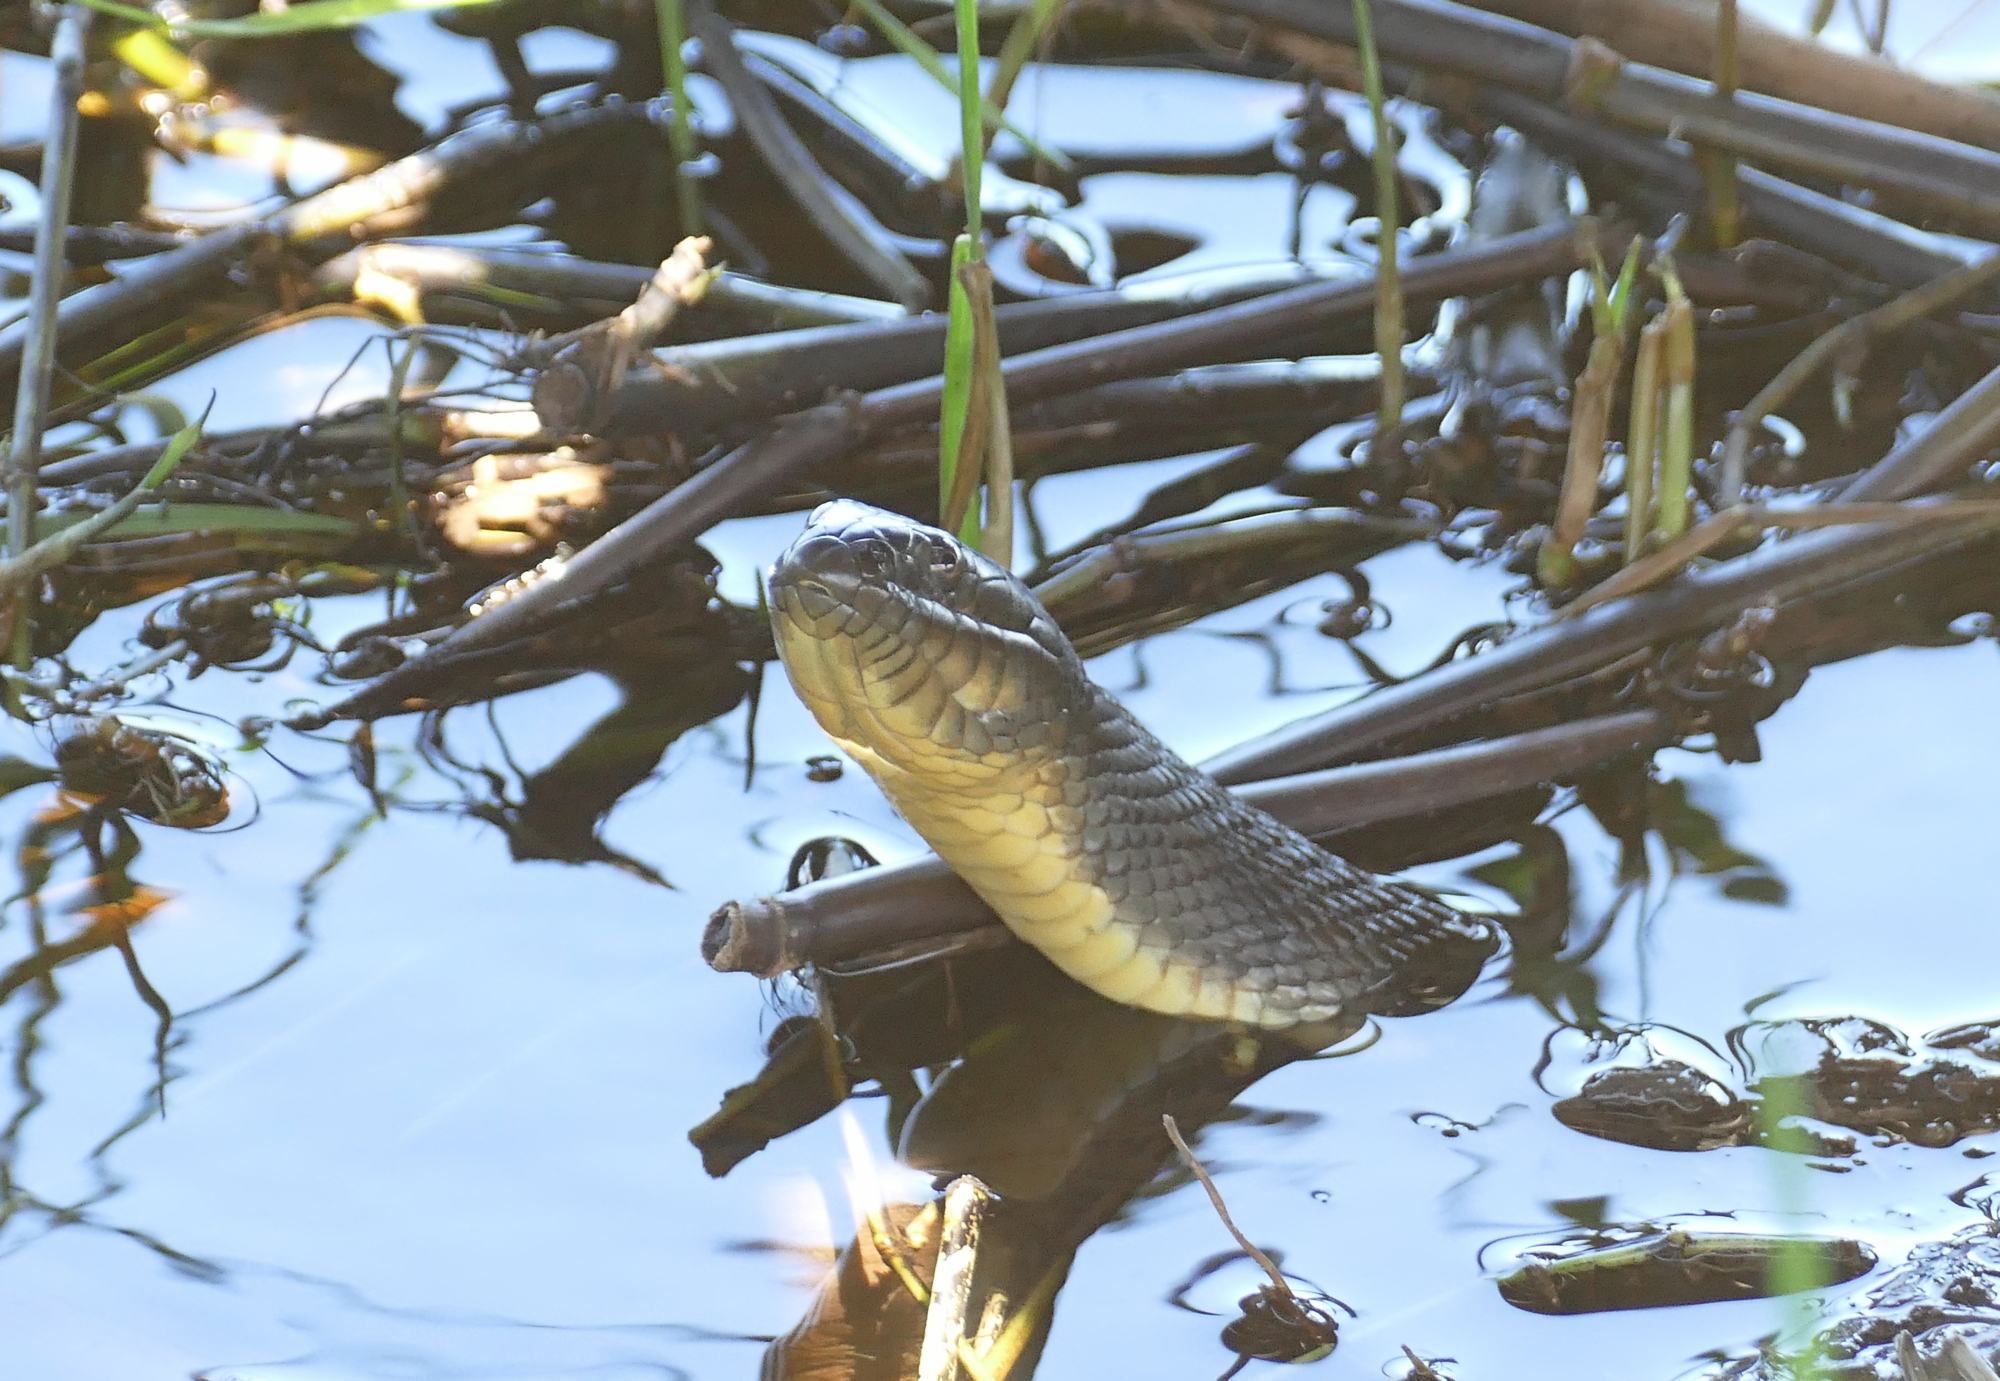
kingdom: Animalia
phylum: Chordata
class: Squamata
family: Colubridae
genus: Nerodia
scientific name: Nerodia cyclopion
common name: Mississippi green water snake
